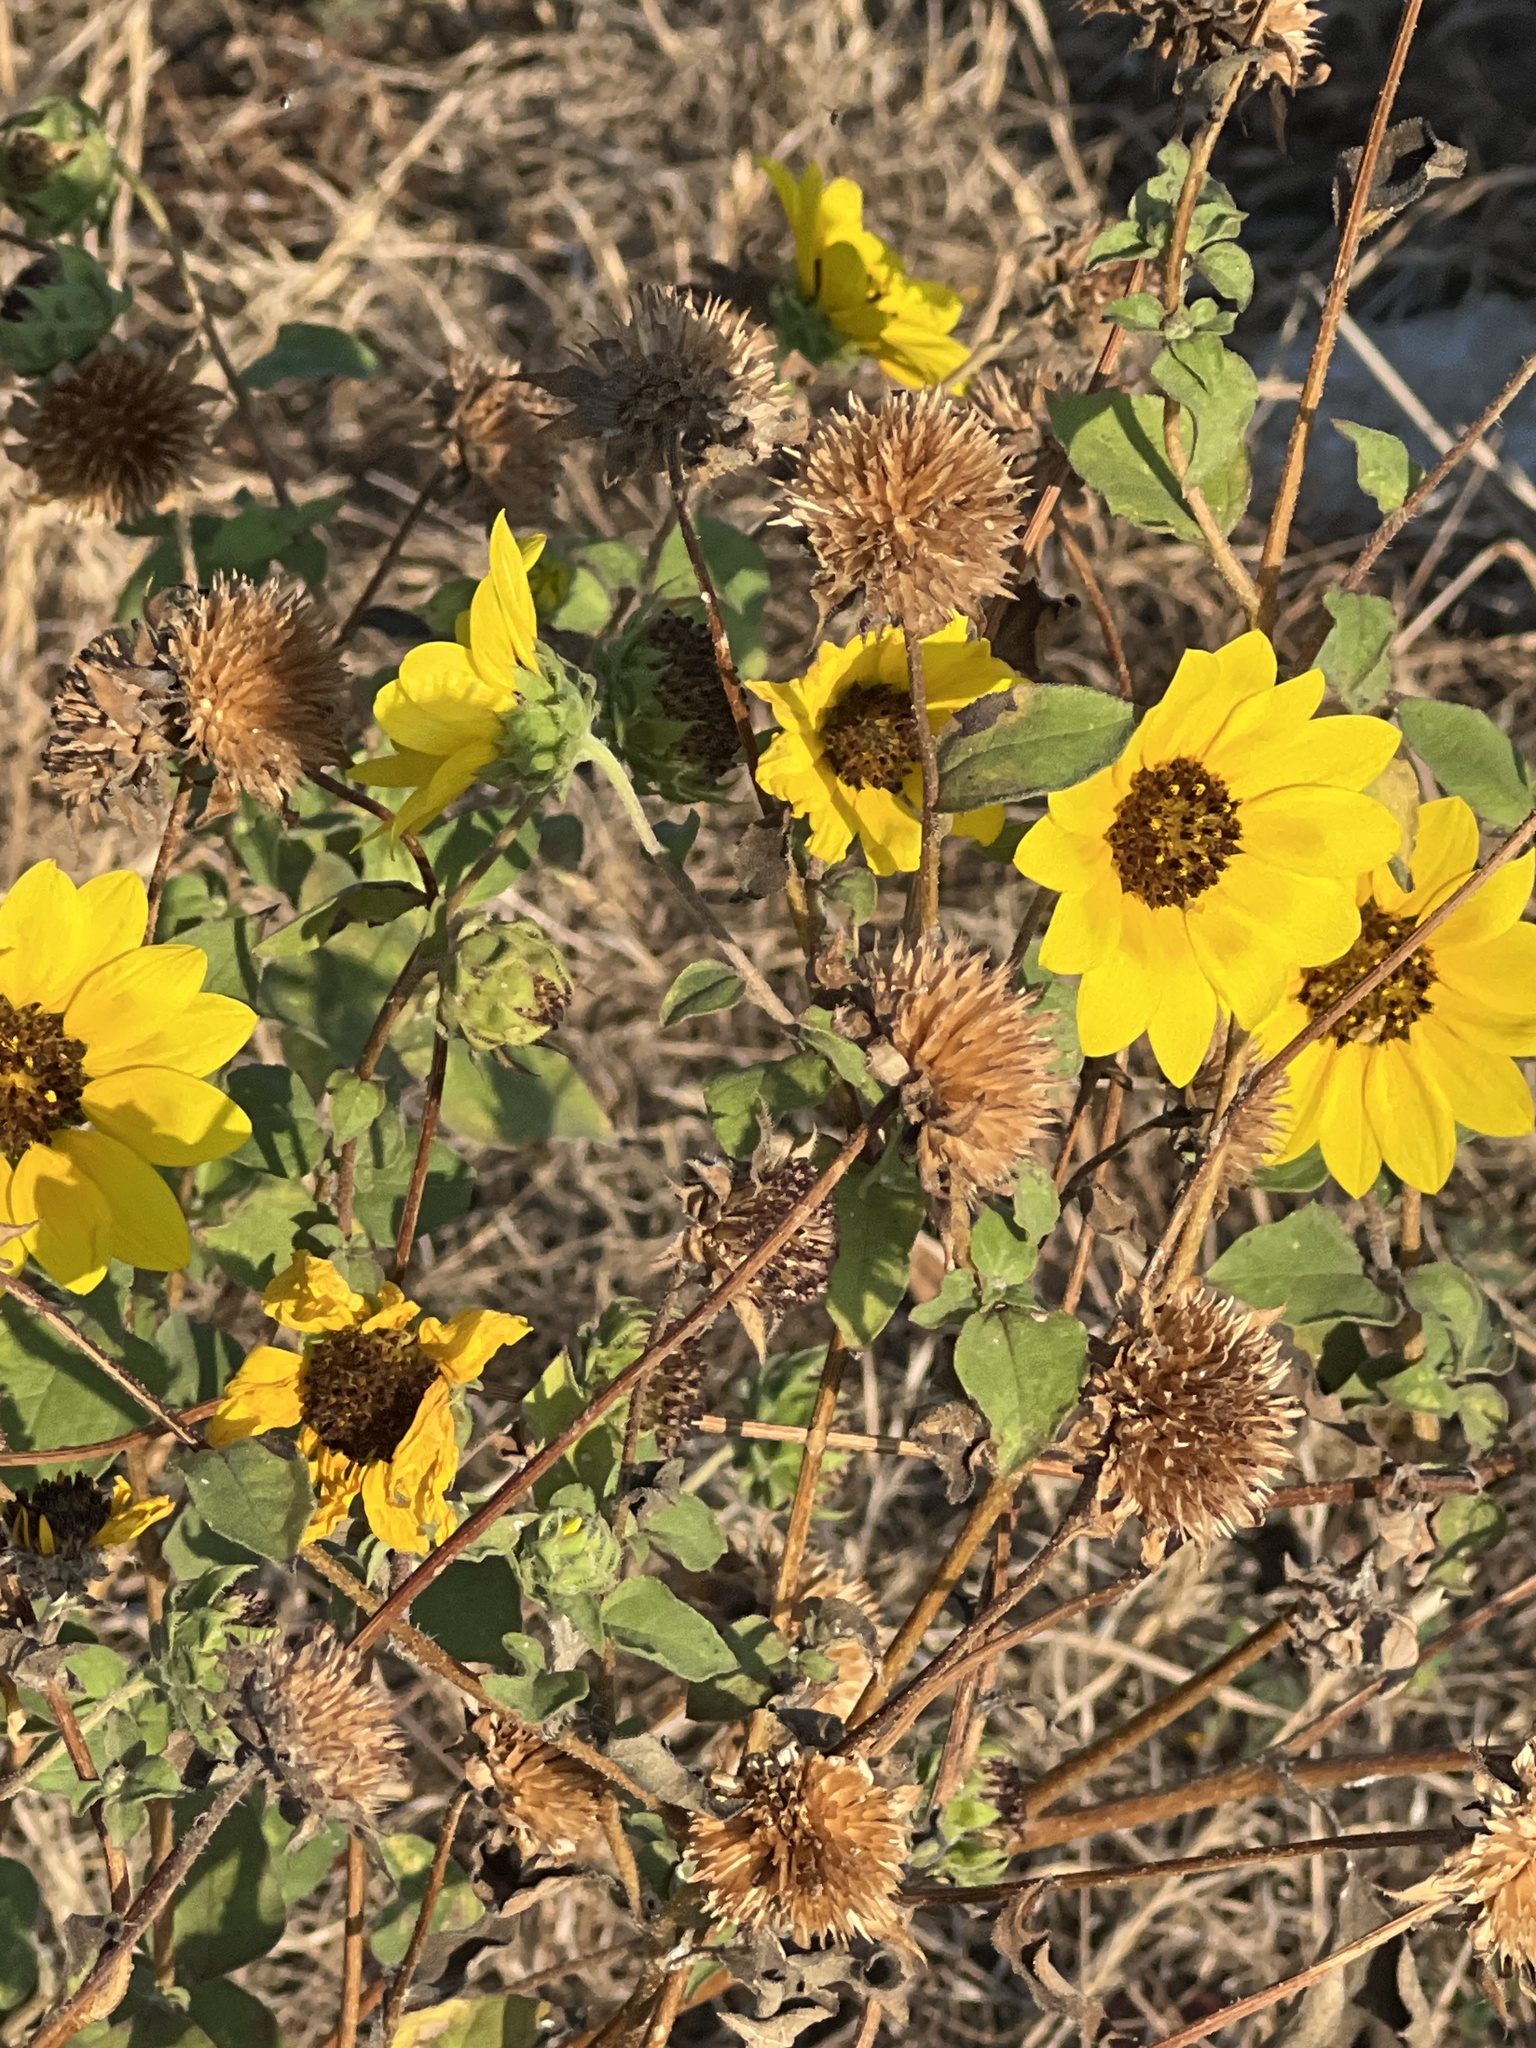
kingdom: Plantae
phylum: Tracheophyta
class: Magnoliopsida
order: Asterales
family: Asteraceae
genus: Helianthus
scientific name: Helianthus annuus
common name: Sunflower
